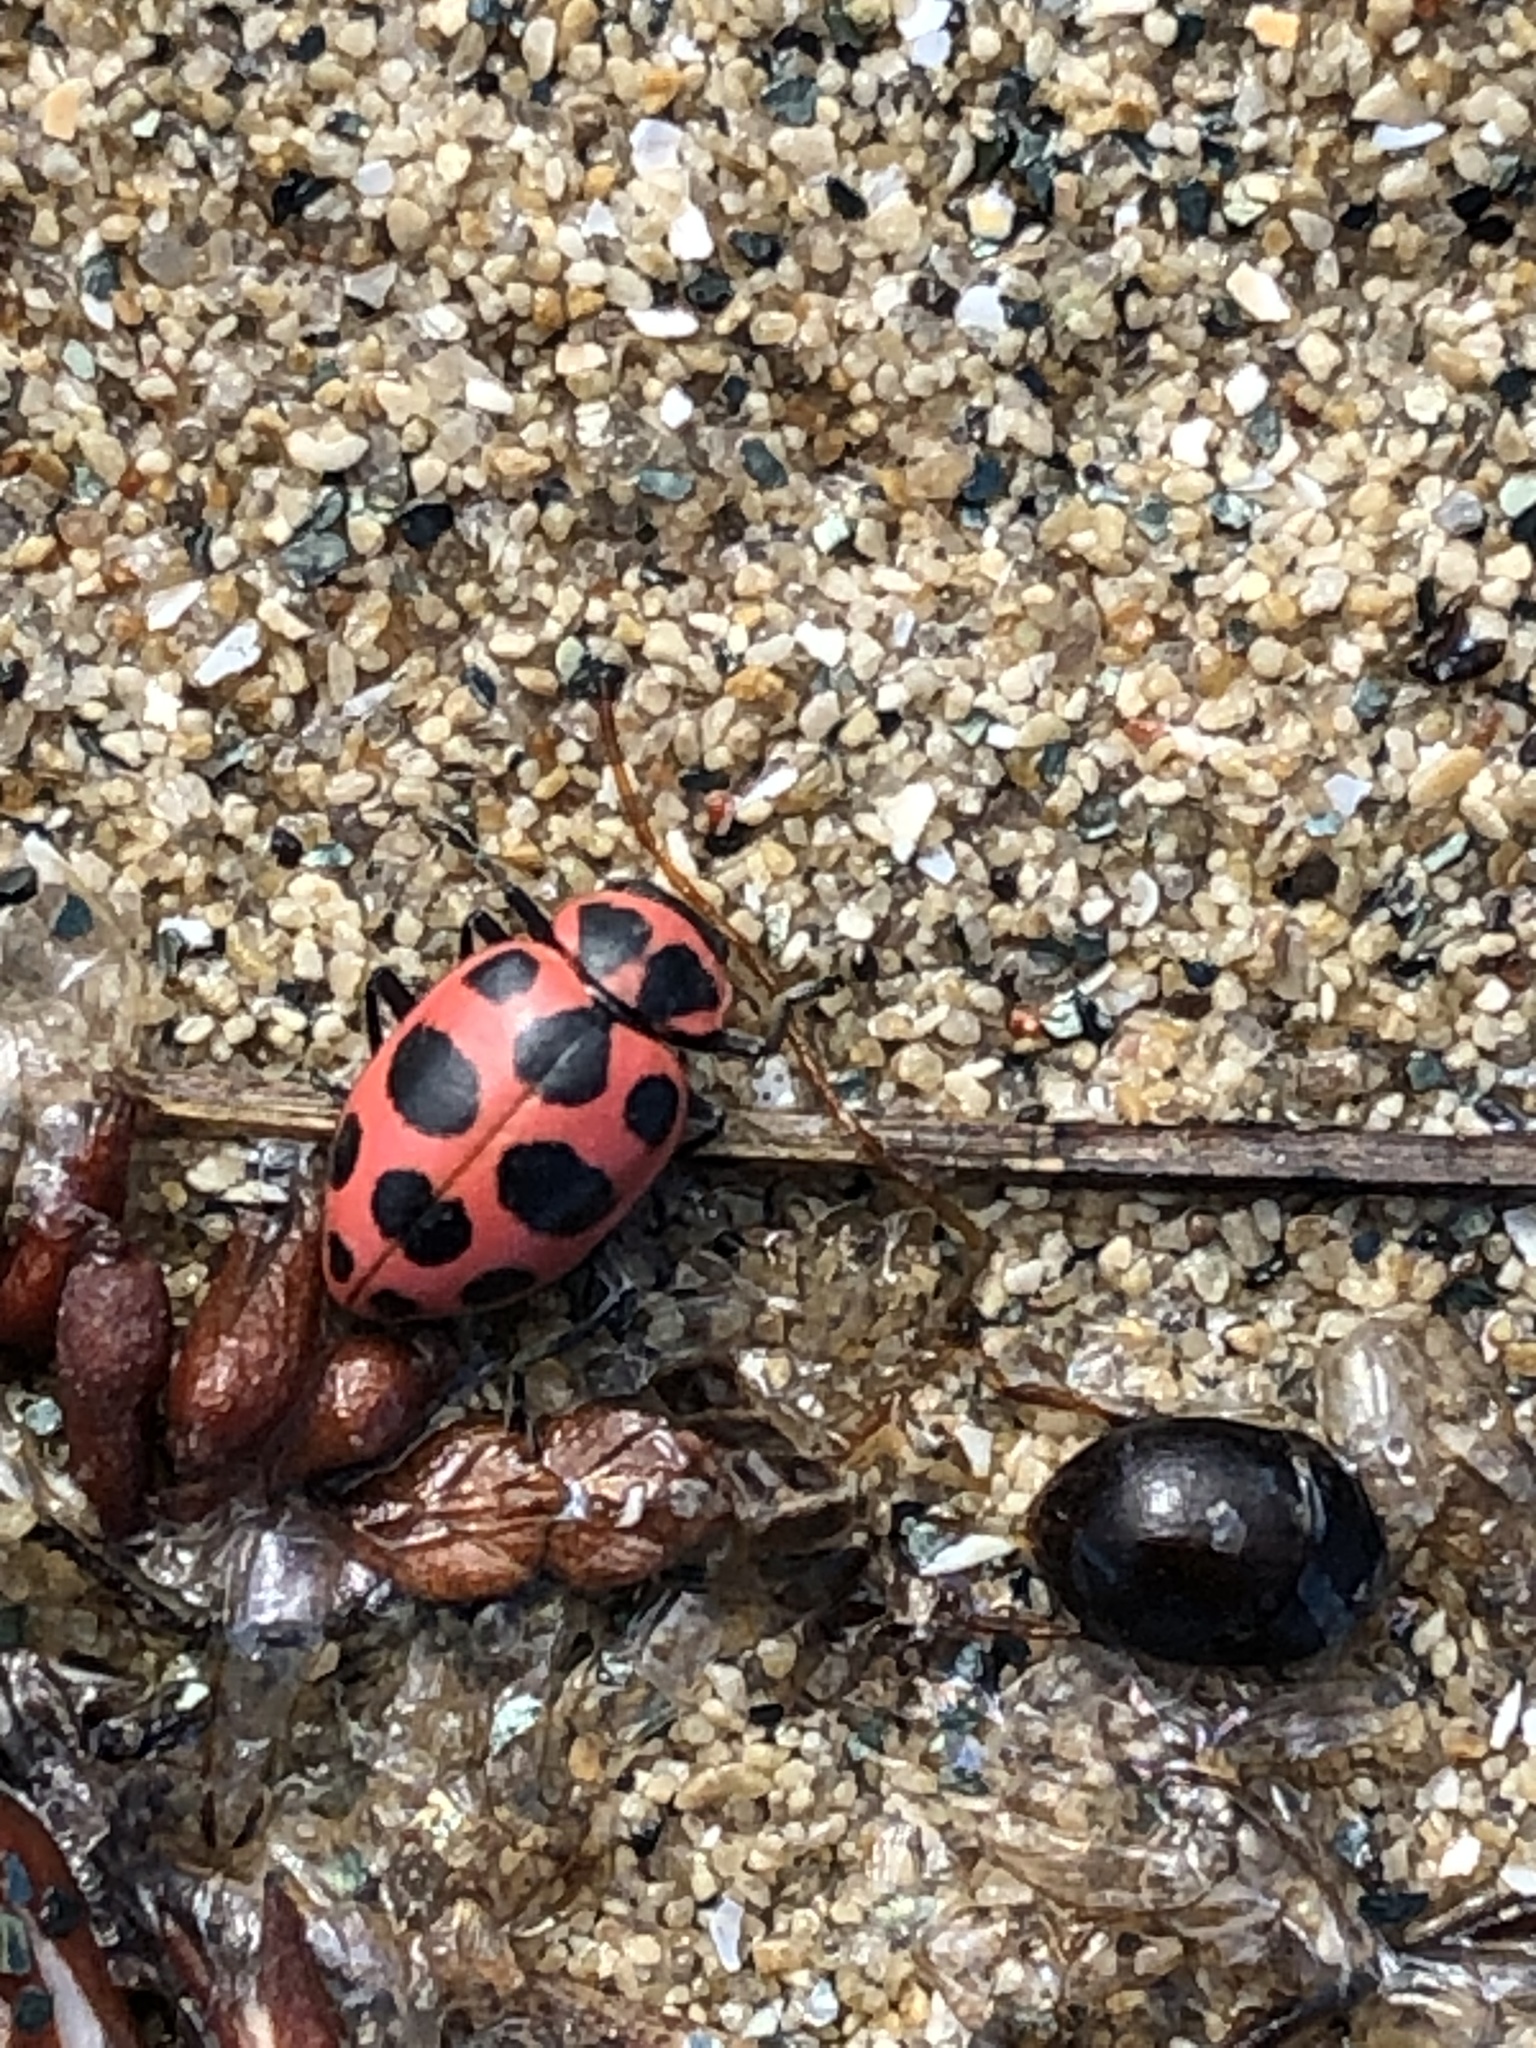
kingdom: Animalia
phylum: Arthropoda
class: Insecta
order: Coleoptera
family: Coccinellidae
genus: Coleomegilla
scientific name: Coleomegilla maculata
